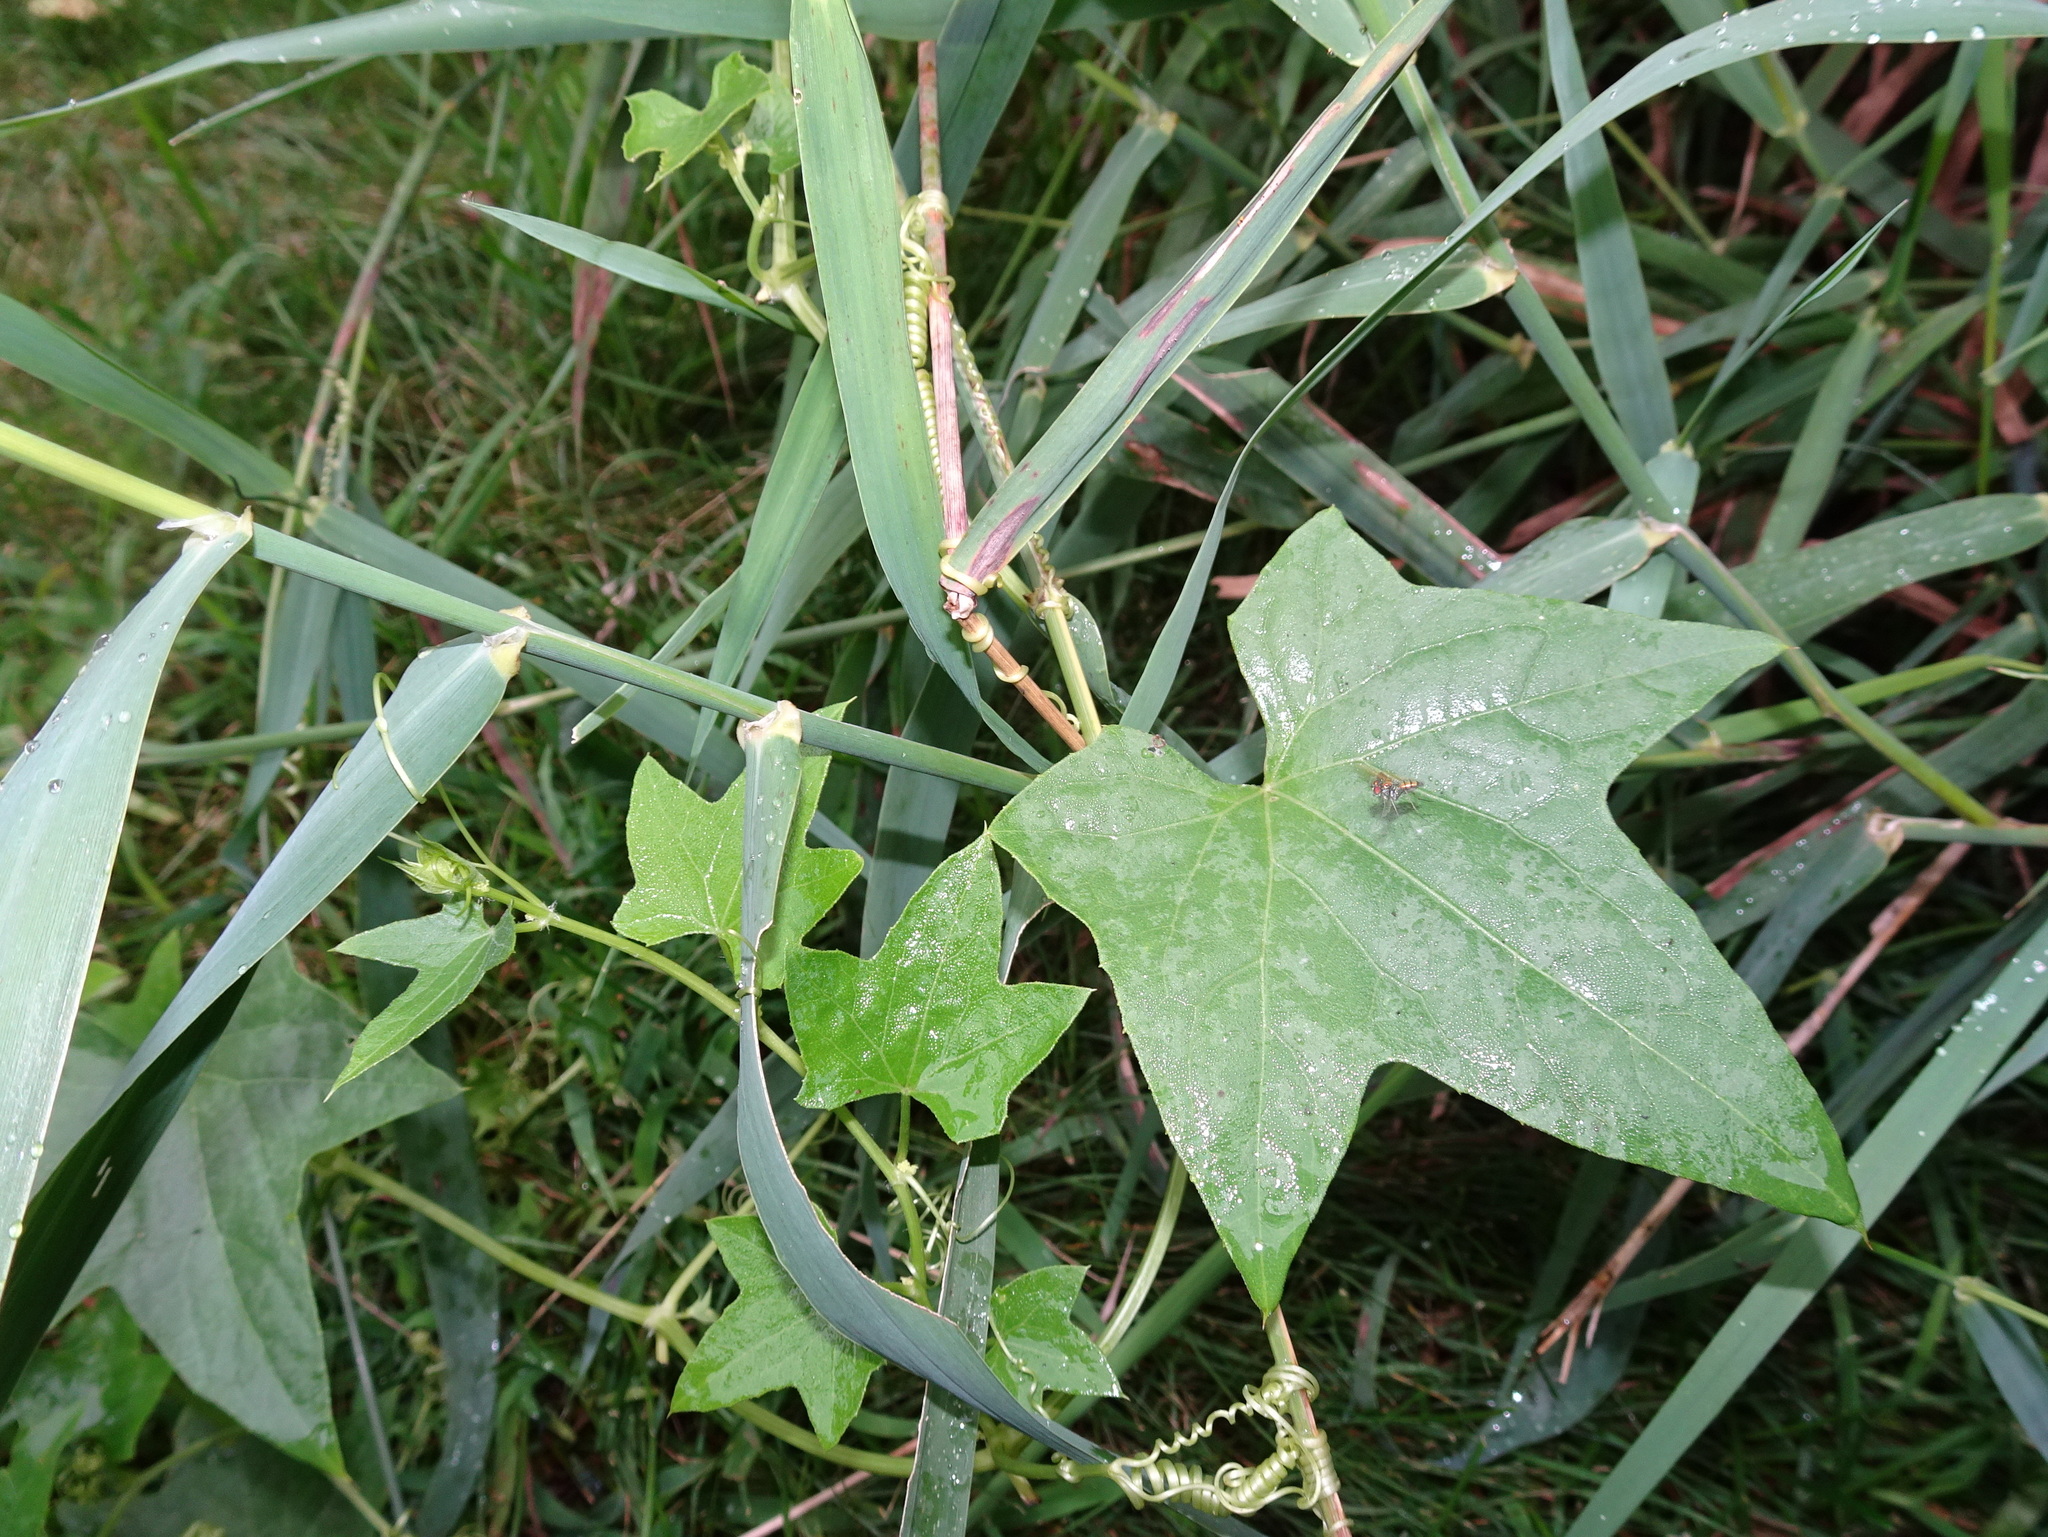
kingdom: Plantae
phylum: Tracheophyta
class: Magnoliopsida
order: Cucurbitales
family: Cucurbitaceae
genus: Echinocystis
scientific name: Echinocystis lobata
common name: Wild cucumber
